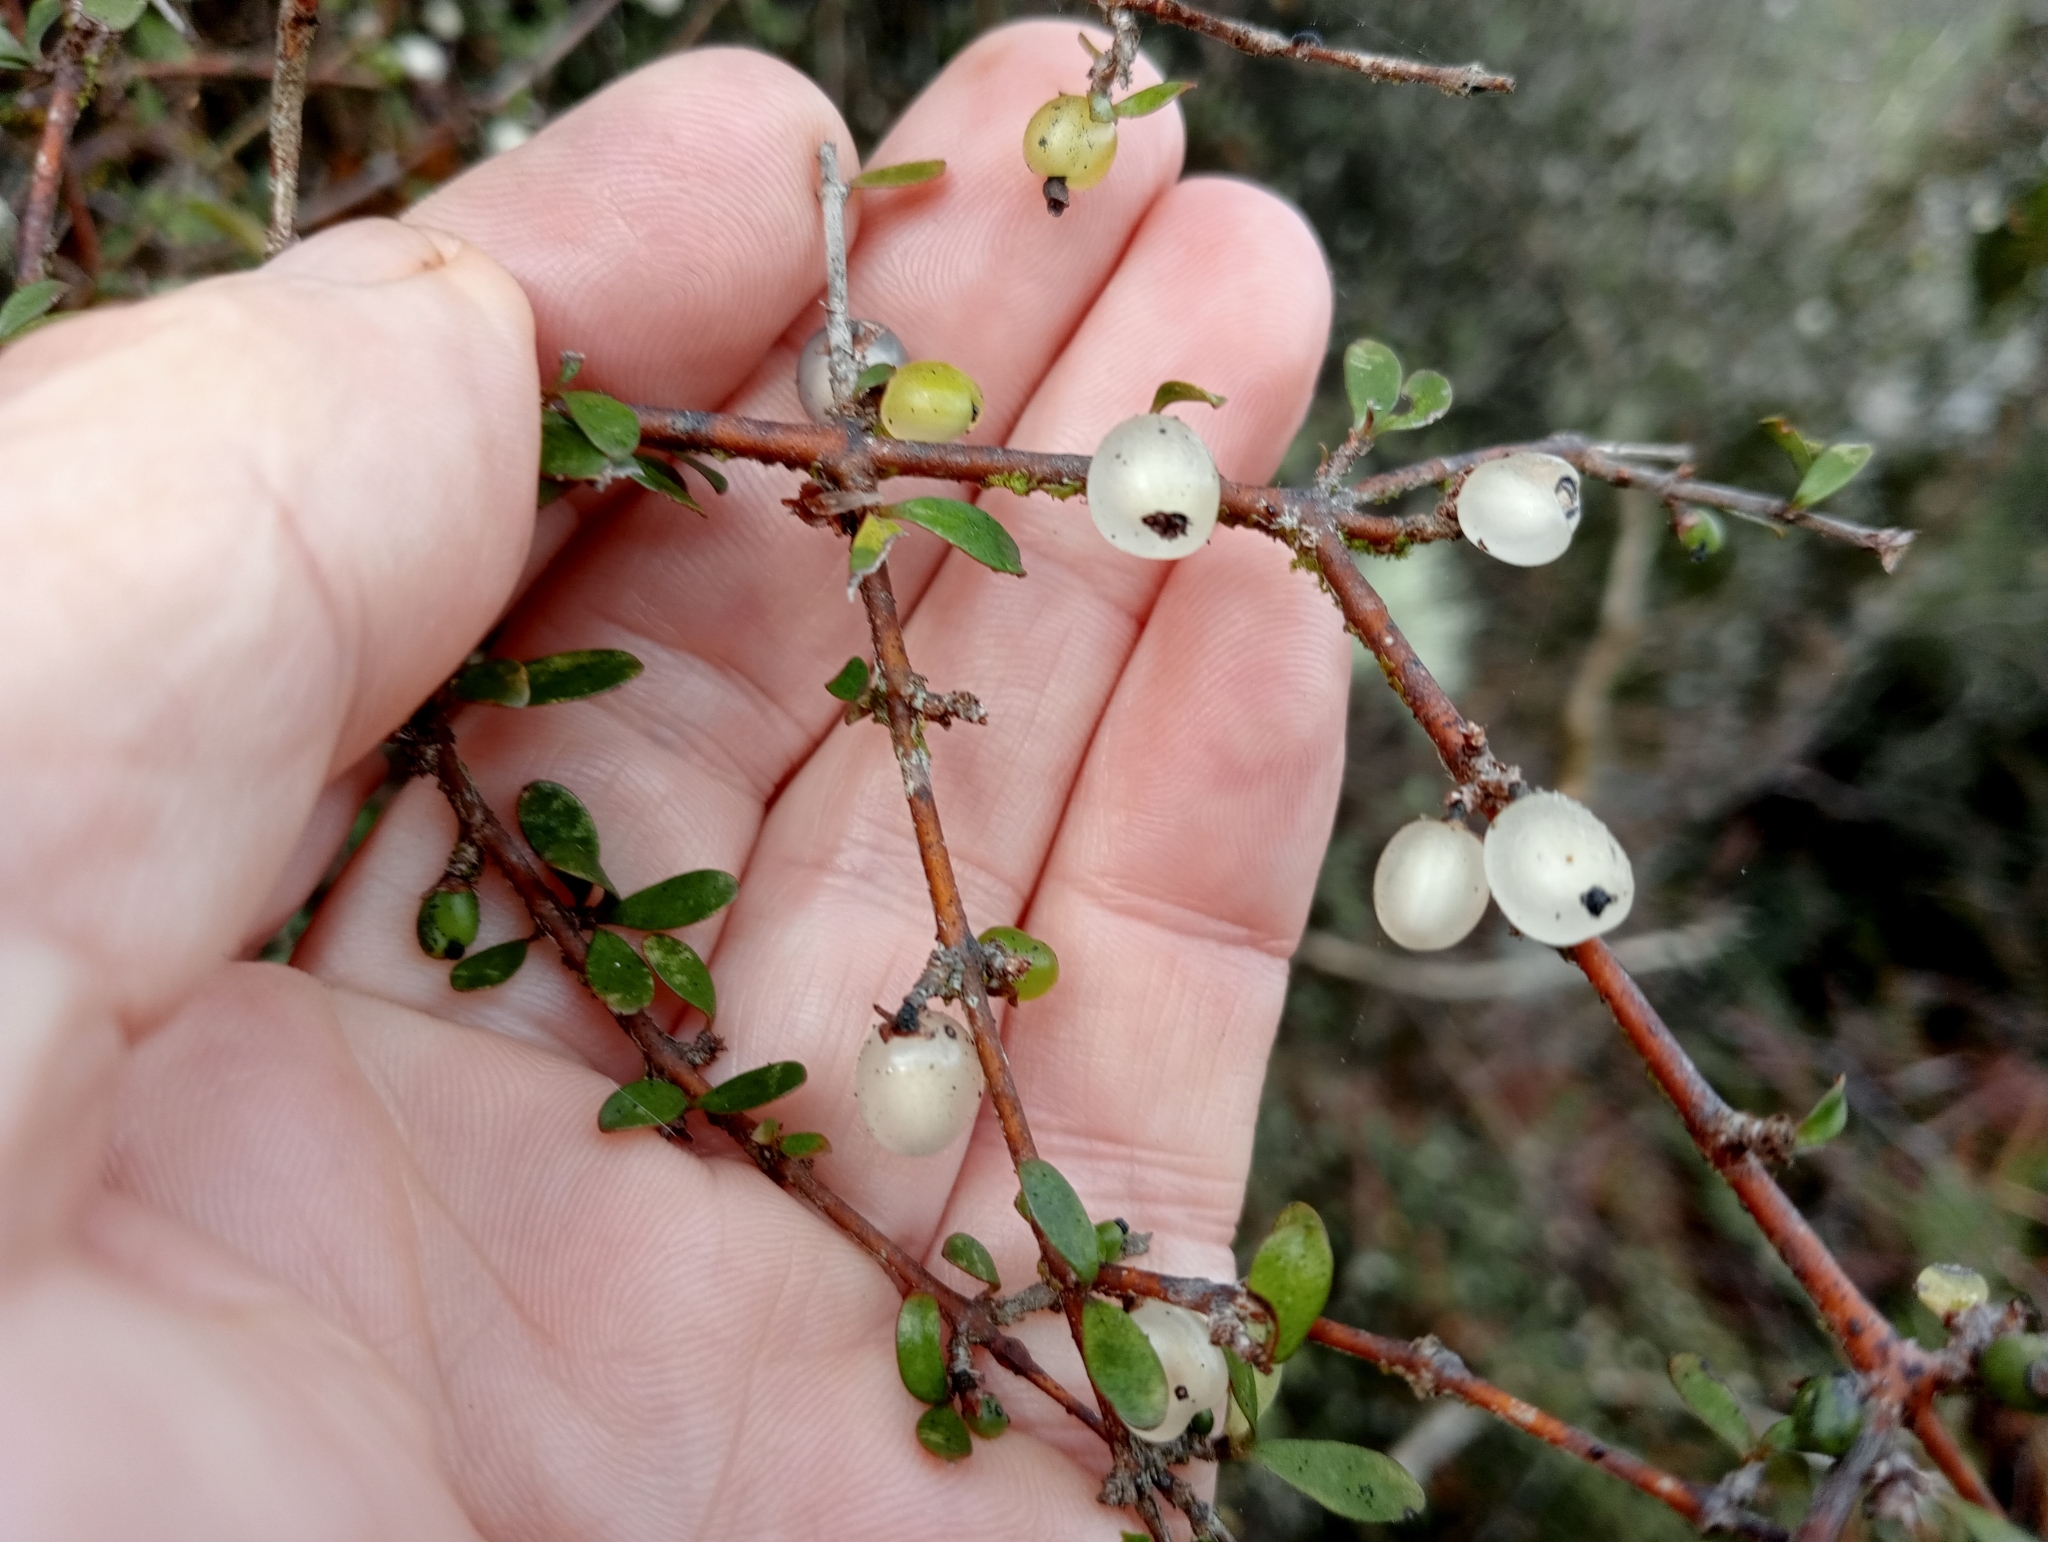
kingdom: Plantae
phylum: Tracheophyta
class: Magnoliopsida
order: Gentianales
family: Rubiaceae
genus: Coprosma
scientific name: Coprosma rigida
